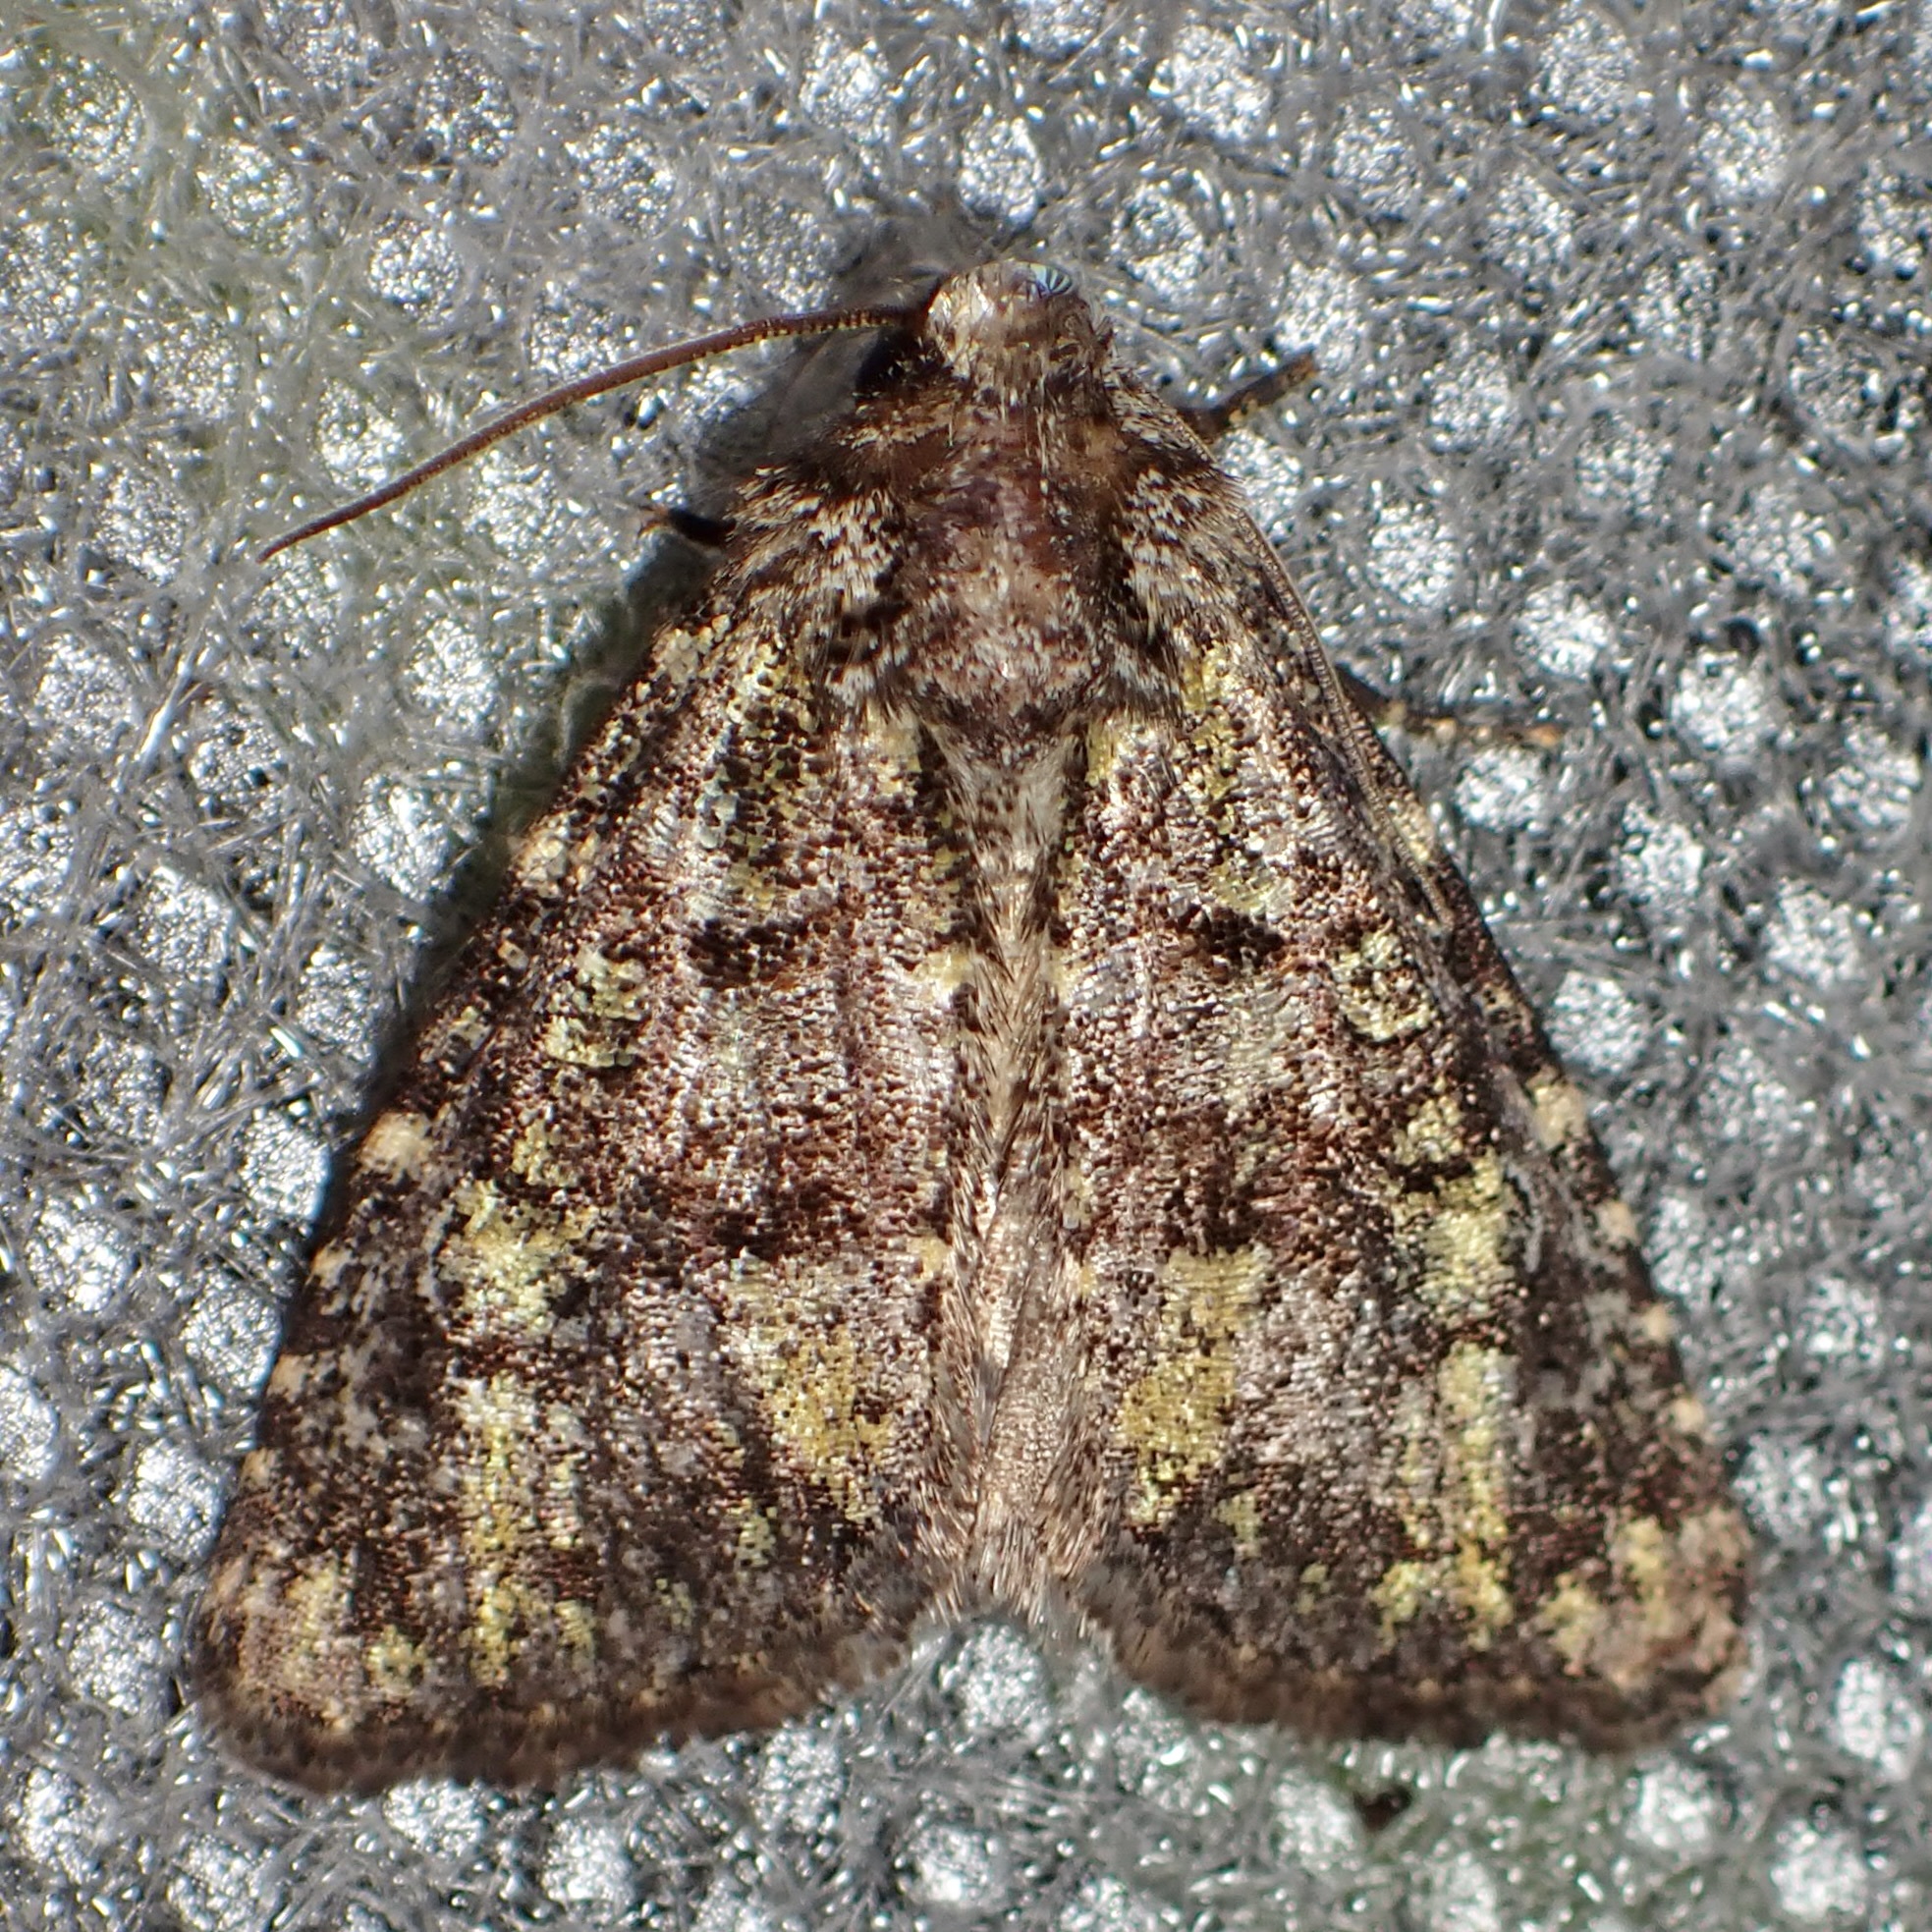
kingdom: Animalia
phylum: Arthropoda
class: Insecta
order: Lepidoptera
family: Noctuidae
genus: Paramiana
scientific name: Paramiana smaragdina
